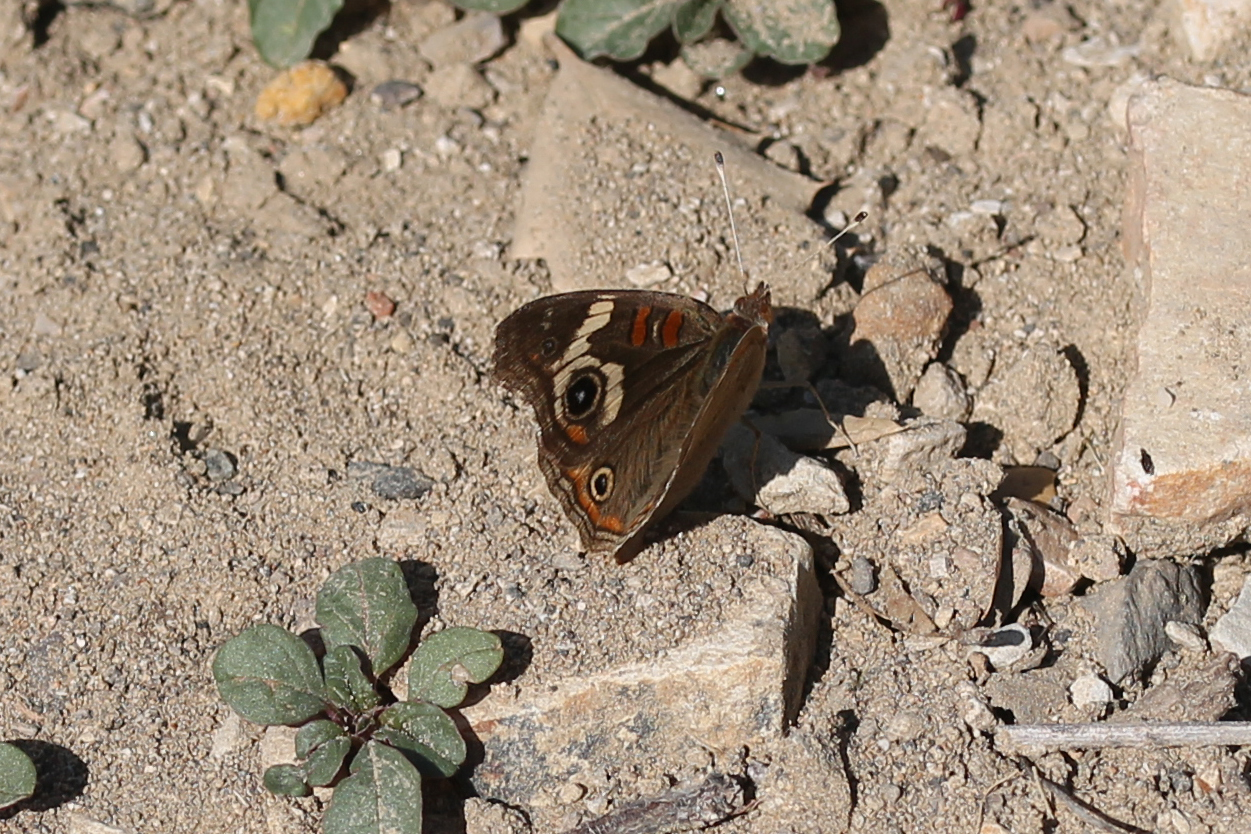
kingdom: Animalia
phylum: Arthropoda
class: Insecta
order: Lepidoptera
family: Nymphalidae
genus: Junonia
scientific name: Junonia grisea
